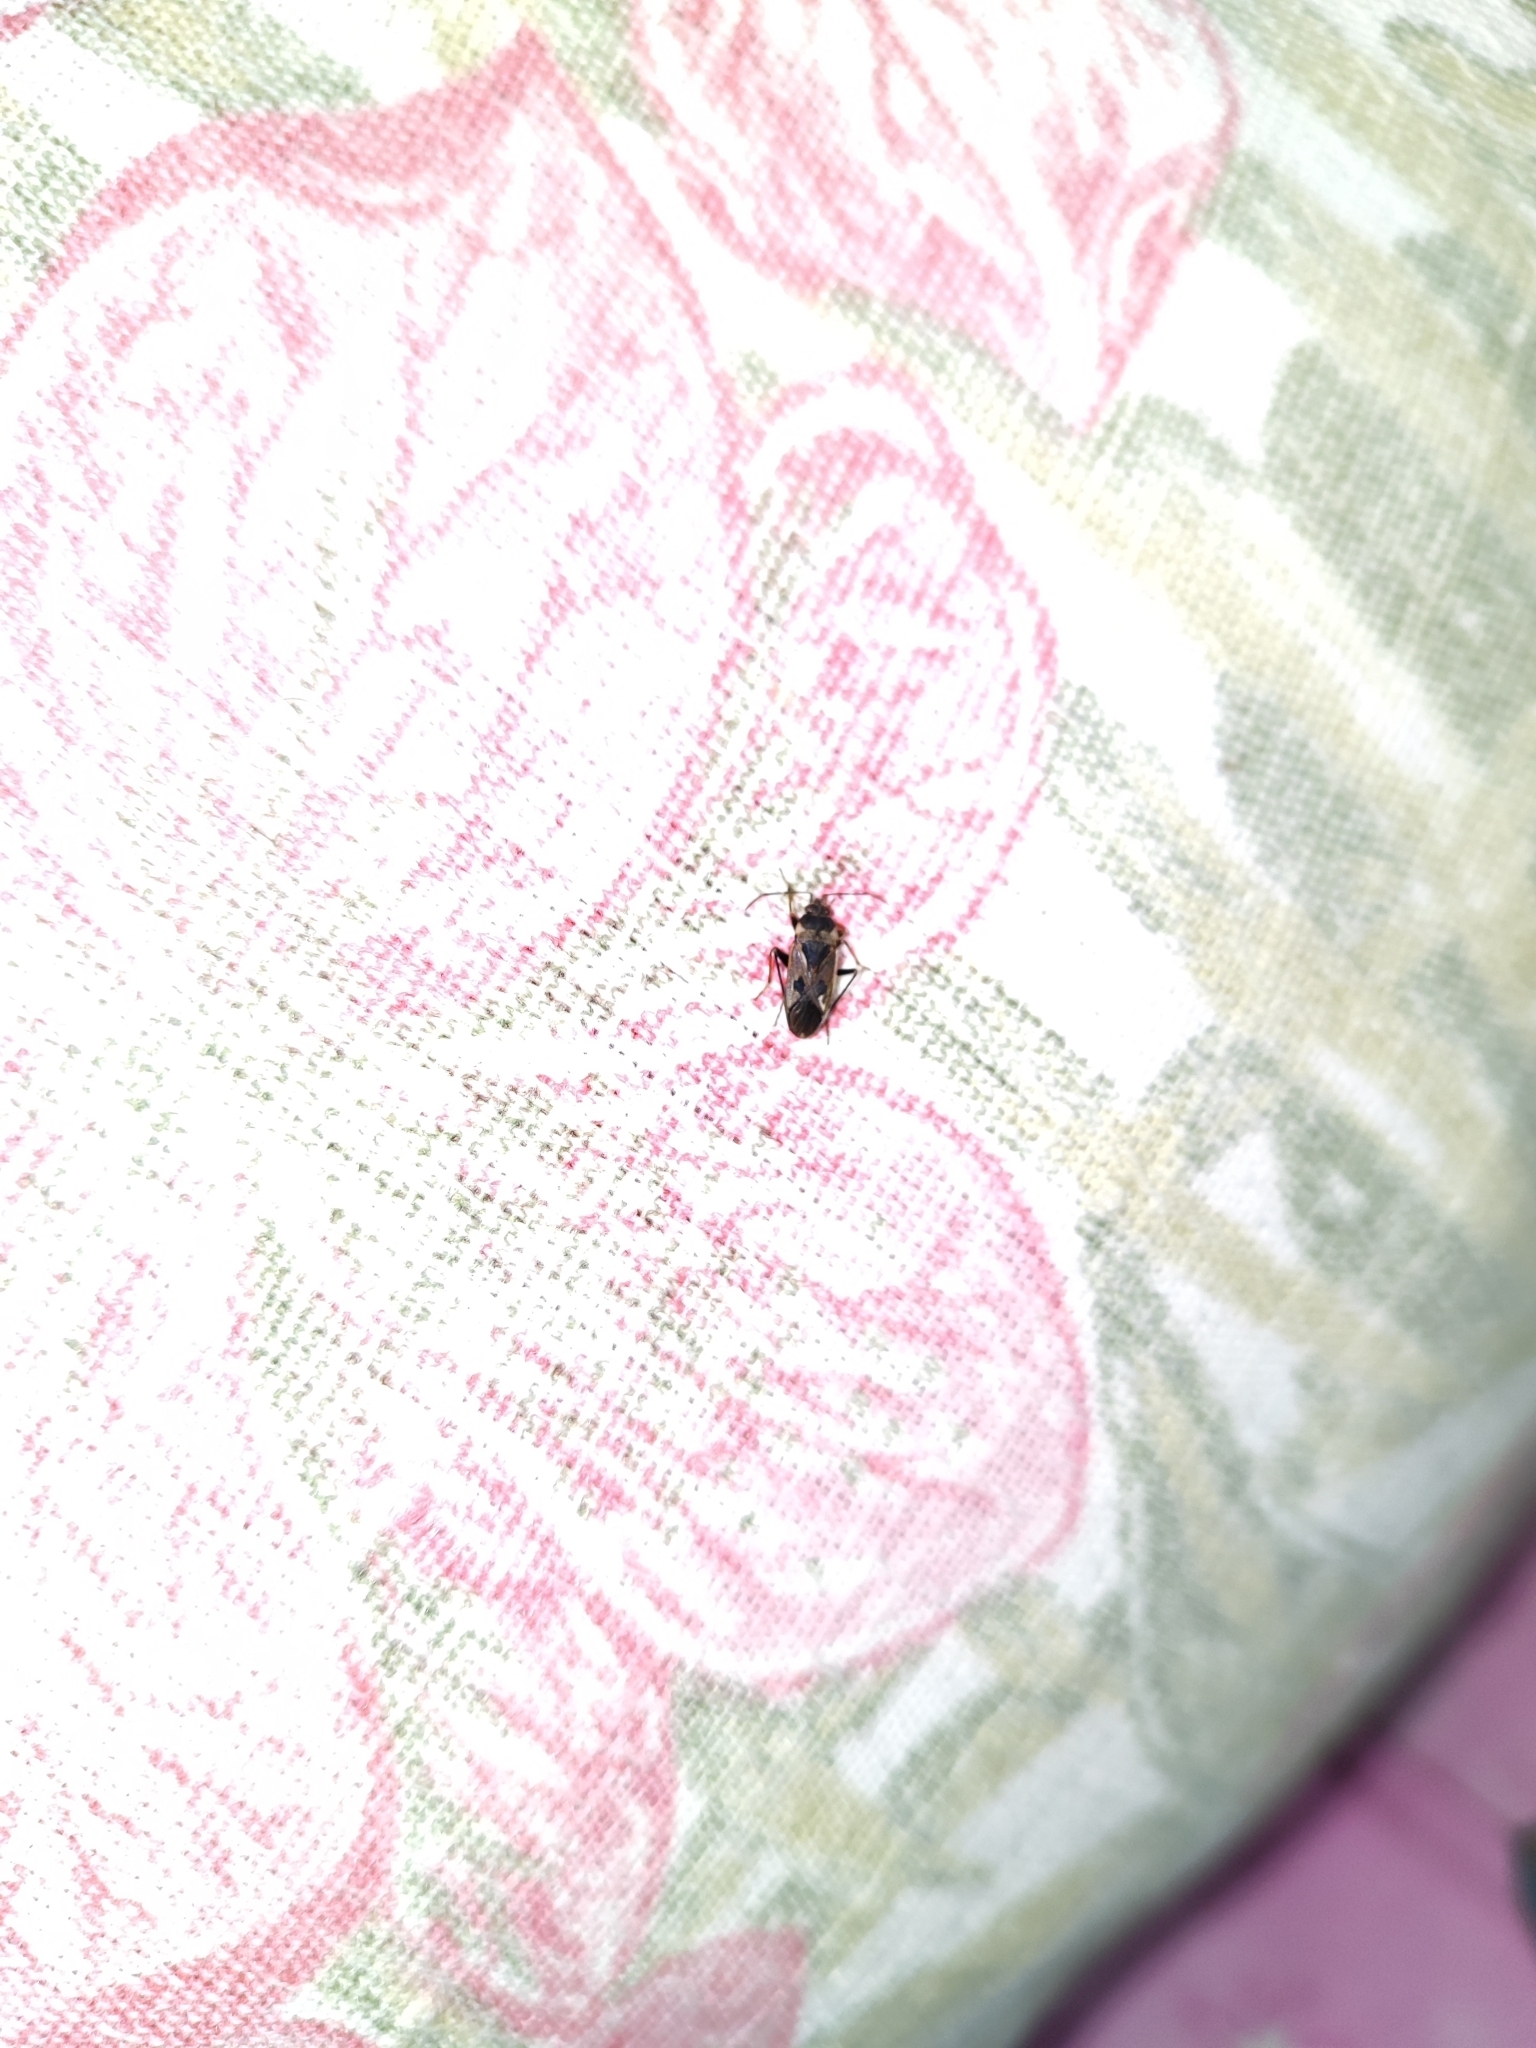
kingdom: Animalia
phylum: Arthropoda
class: Insecta
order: Hemiptera
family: Rhyparochromidae
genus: Rhyparochromus
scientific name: Rhyparochromus vulgaris
